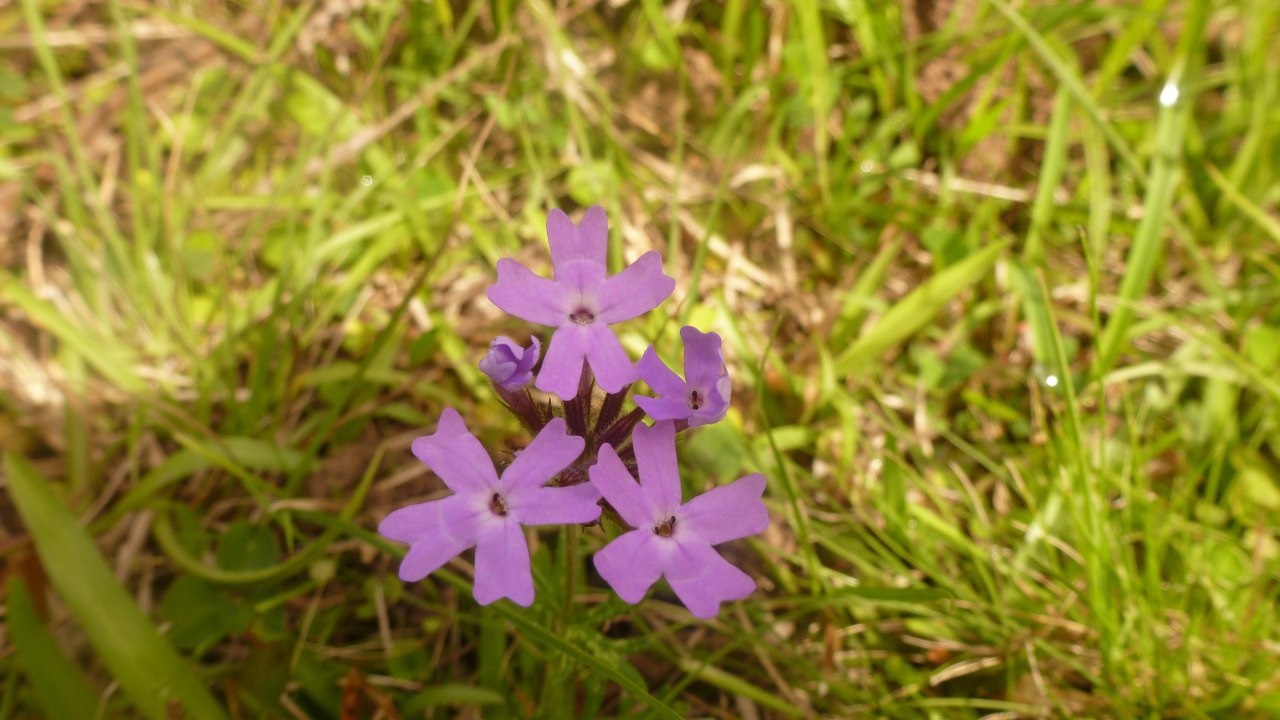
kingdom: Plantae
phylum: Tracheophyta
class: Magnoliopsida
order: Lamiales
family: Verbenaceae
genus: Verbena
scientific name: Verbena selloi
